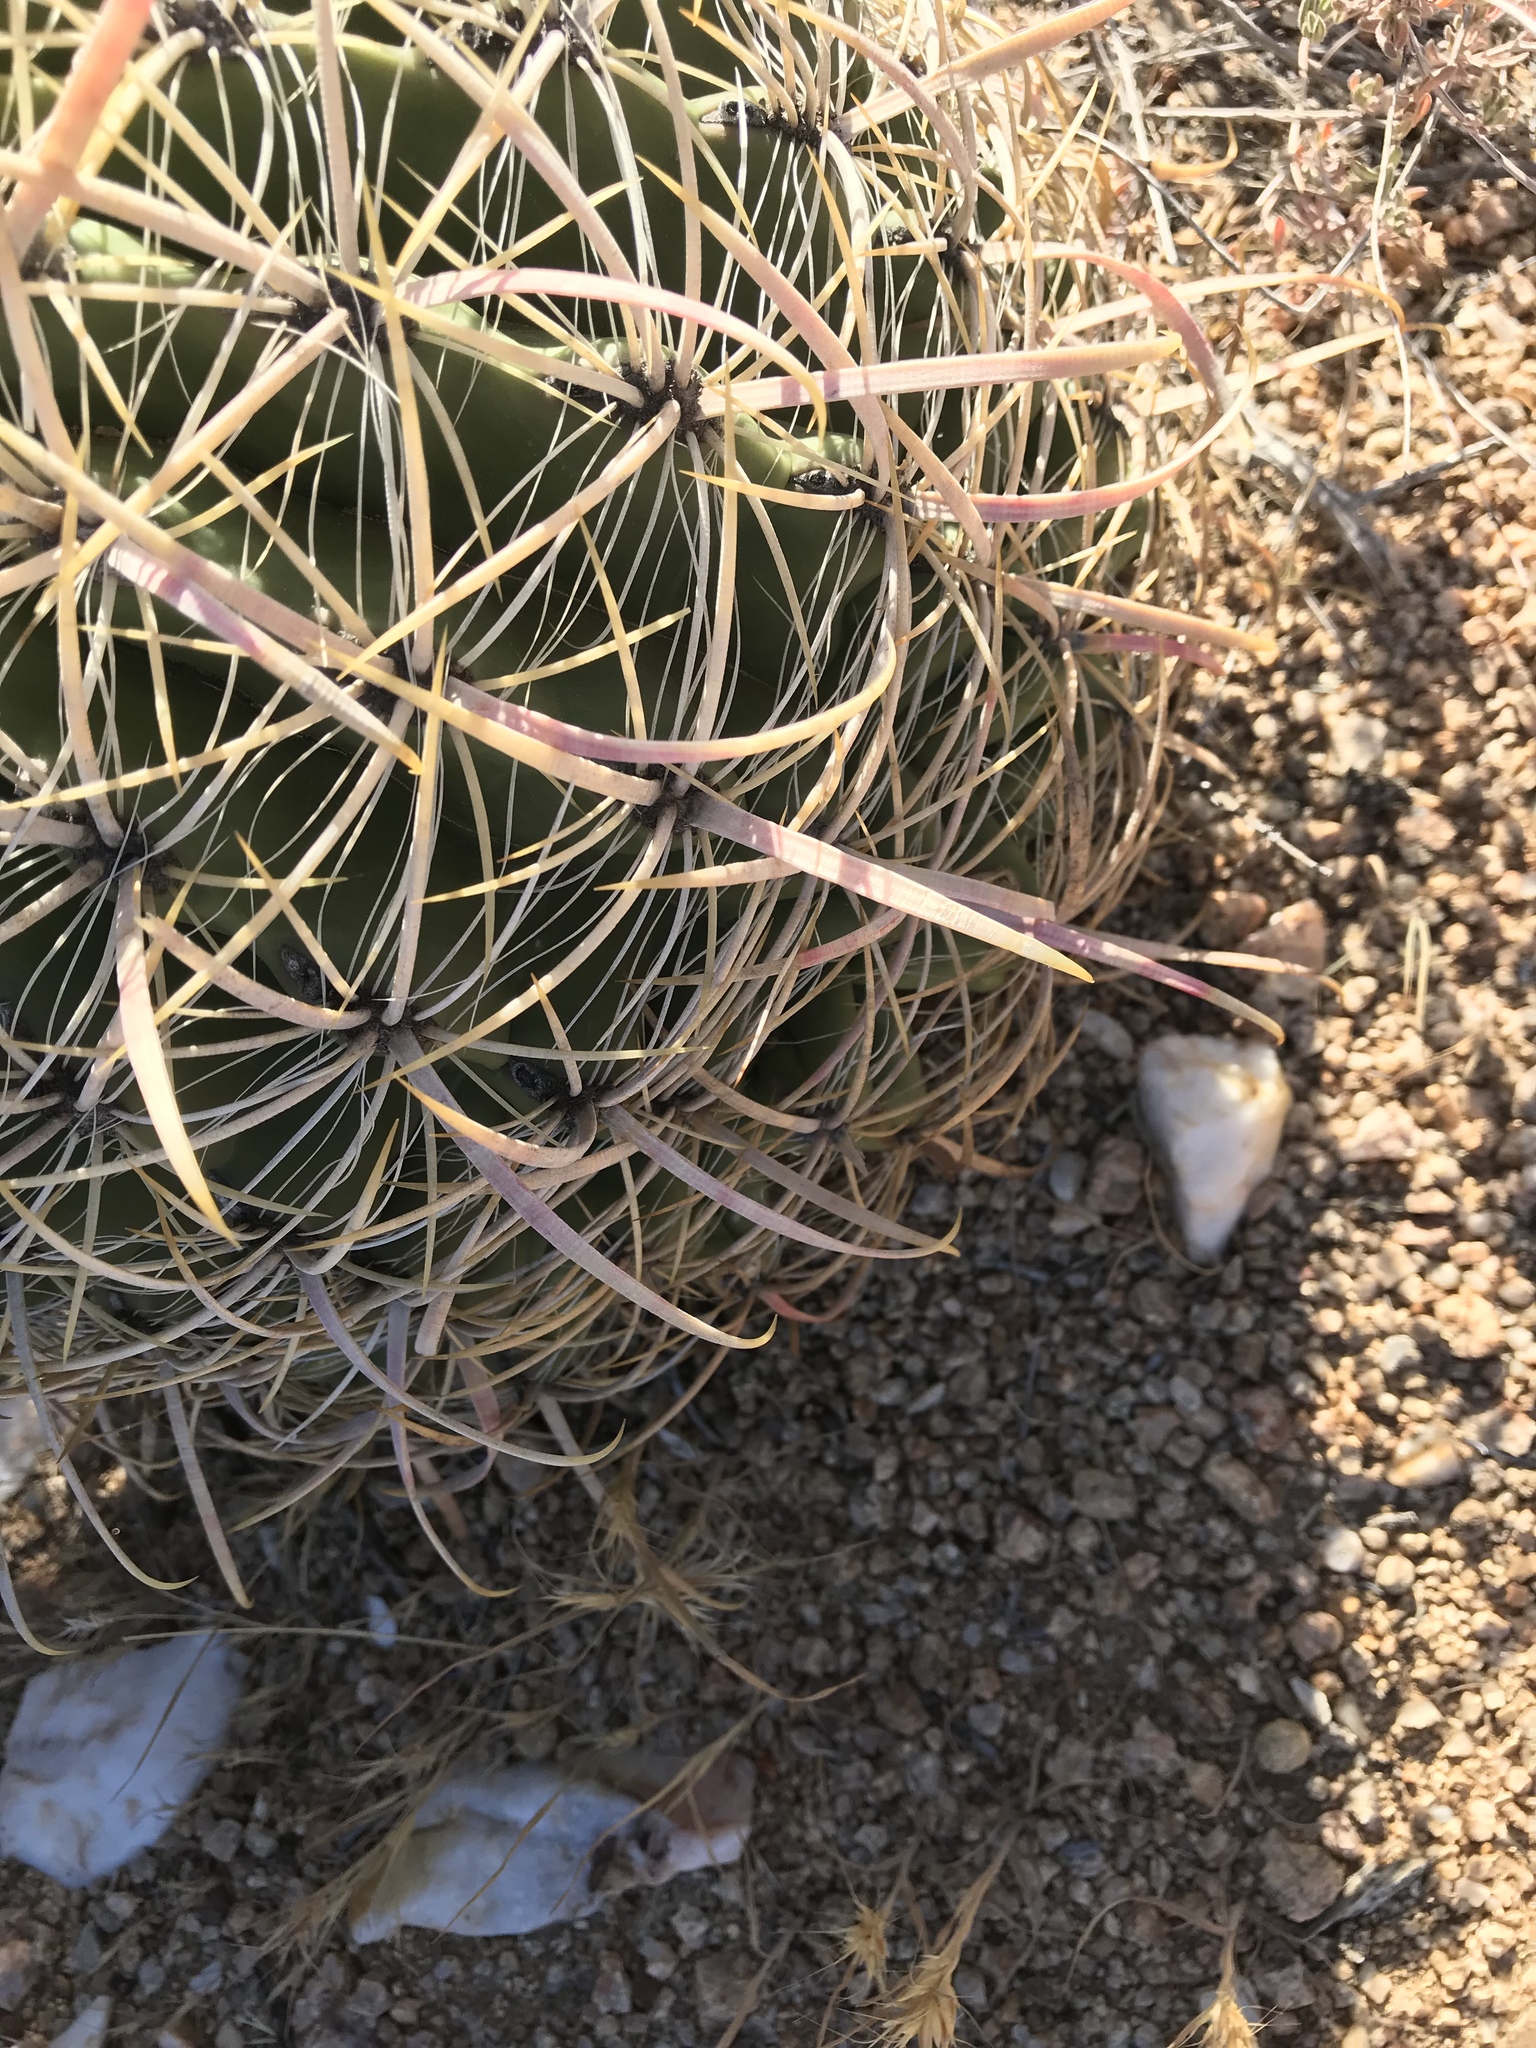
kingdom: Plantae
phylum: Tracheophyta
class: Magnoliopsida
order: Caryophyllales
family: Cactaceae
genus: Ferocactus
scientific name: Ferocactus cylindraceus
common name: California barrel cactus
